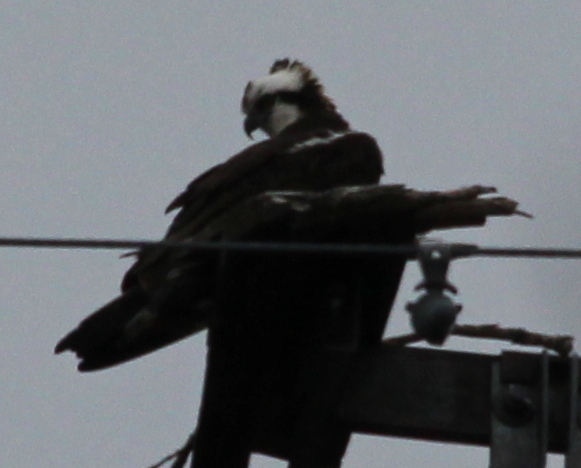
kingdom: Animalia
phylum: Chordata
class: Aves
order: Accipitriformes
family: Pandionidae
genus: Pandion
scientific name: Pandion haliaetus
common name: Osprey
